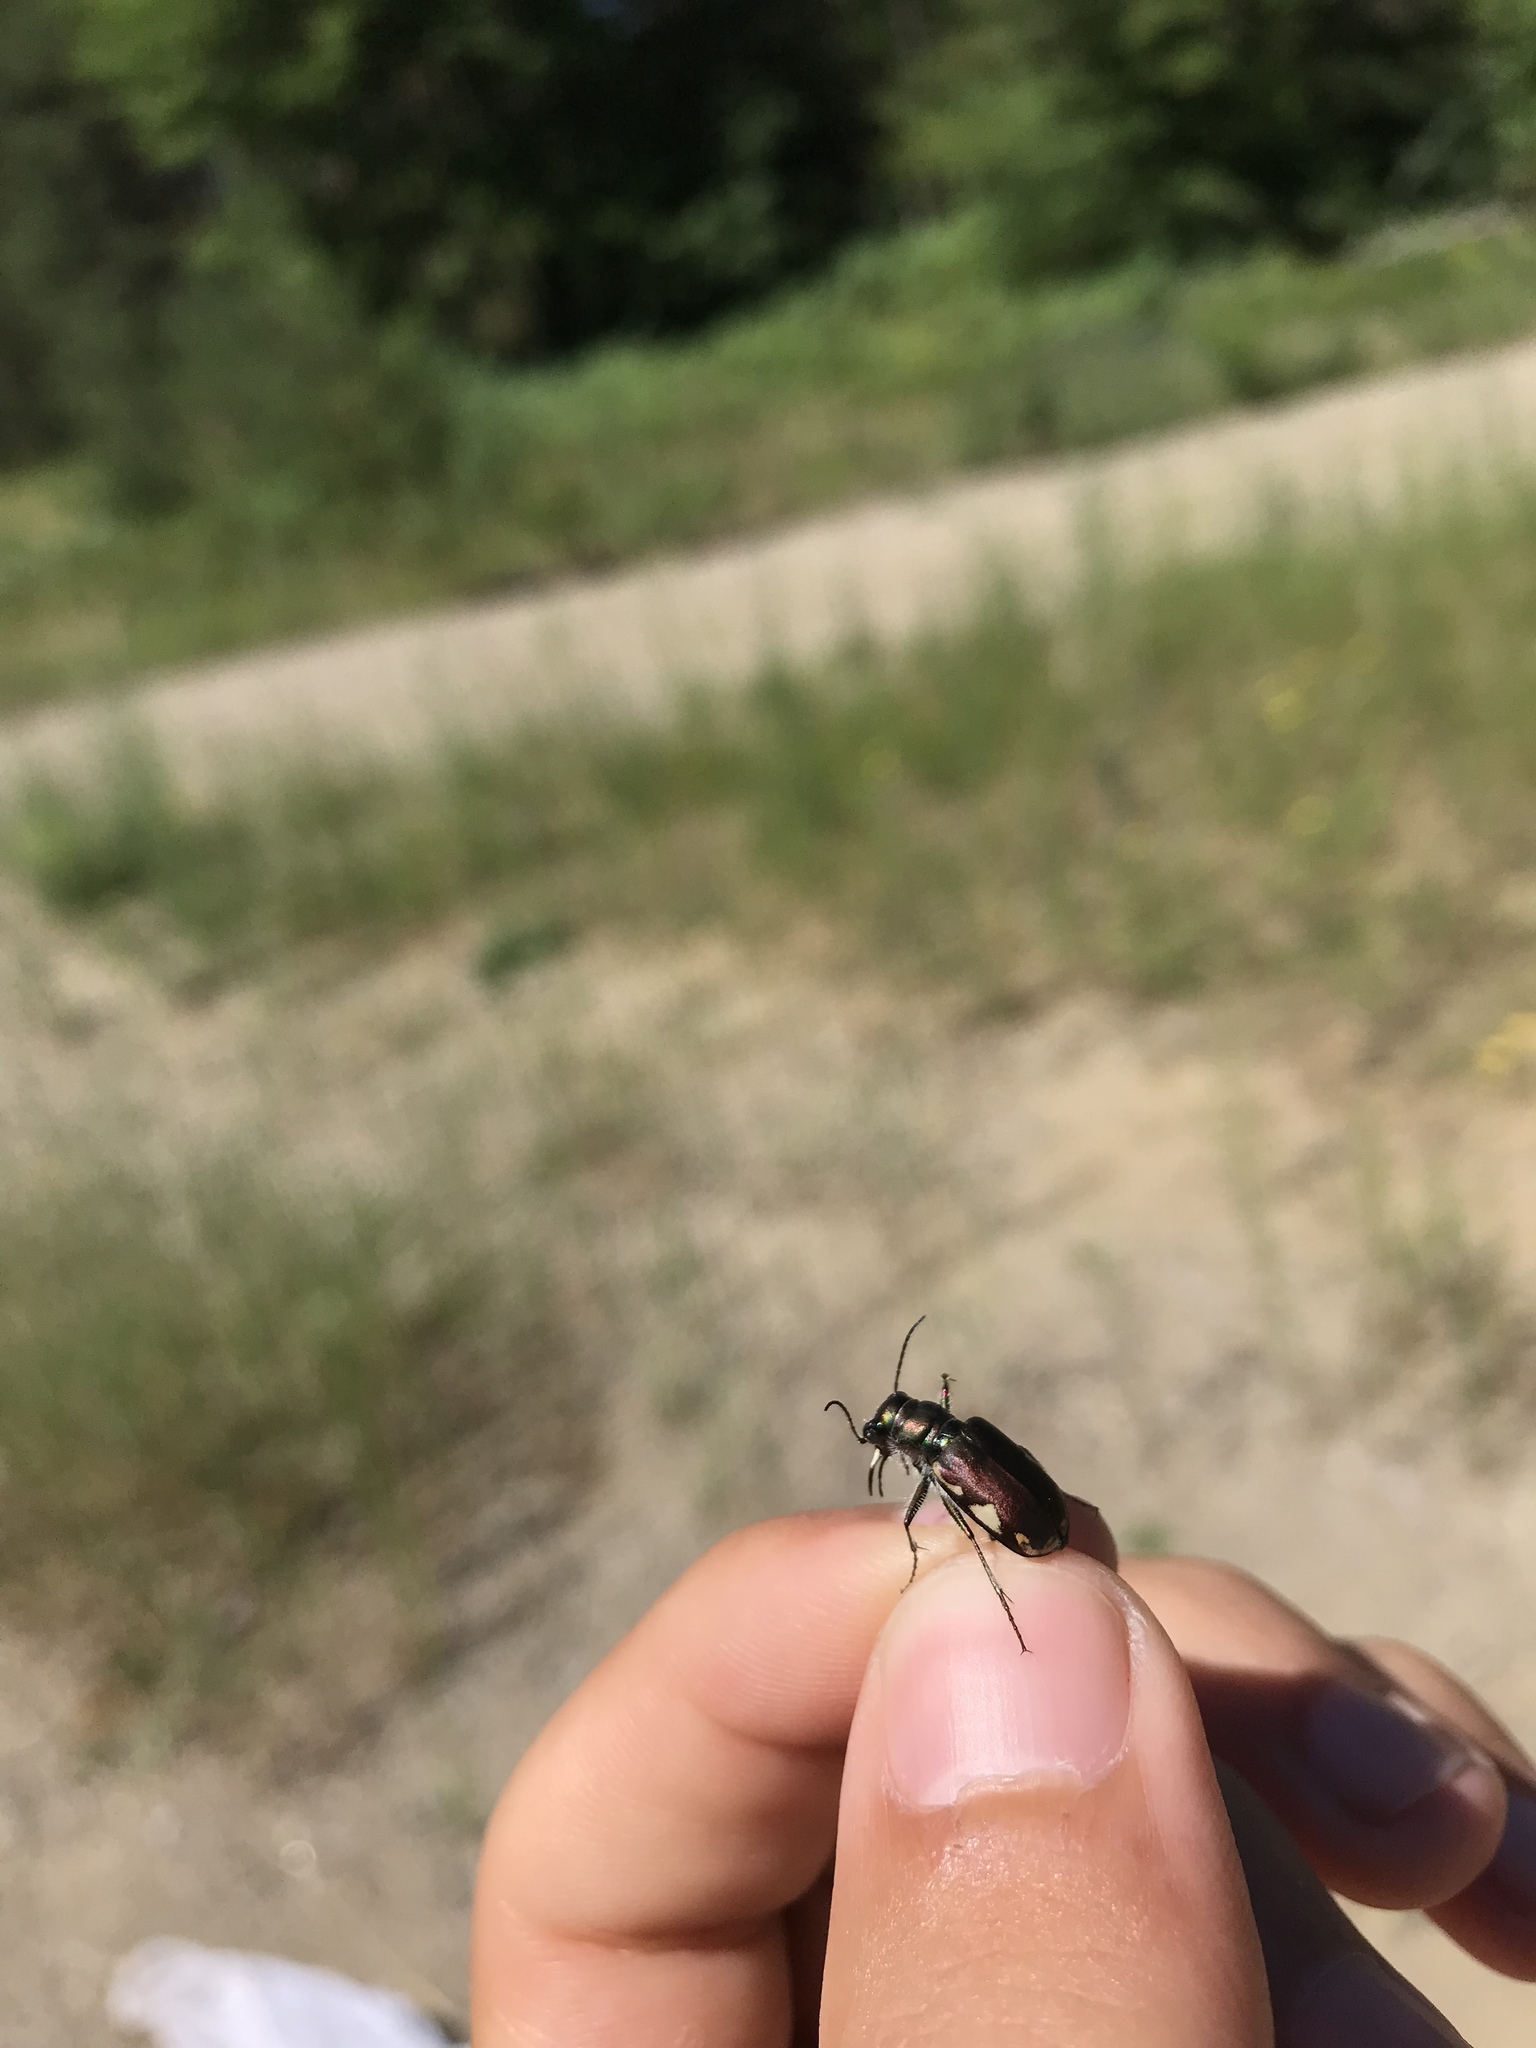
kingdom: Animalia
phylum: Arthropoda
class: Insecta
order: Coleoptera
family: Carabidae
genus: Cicindela
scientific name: Cicindela scutellaris
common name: Festive tiger beetle
